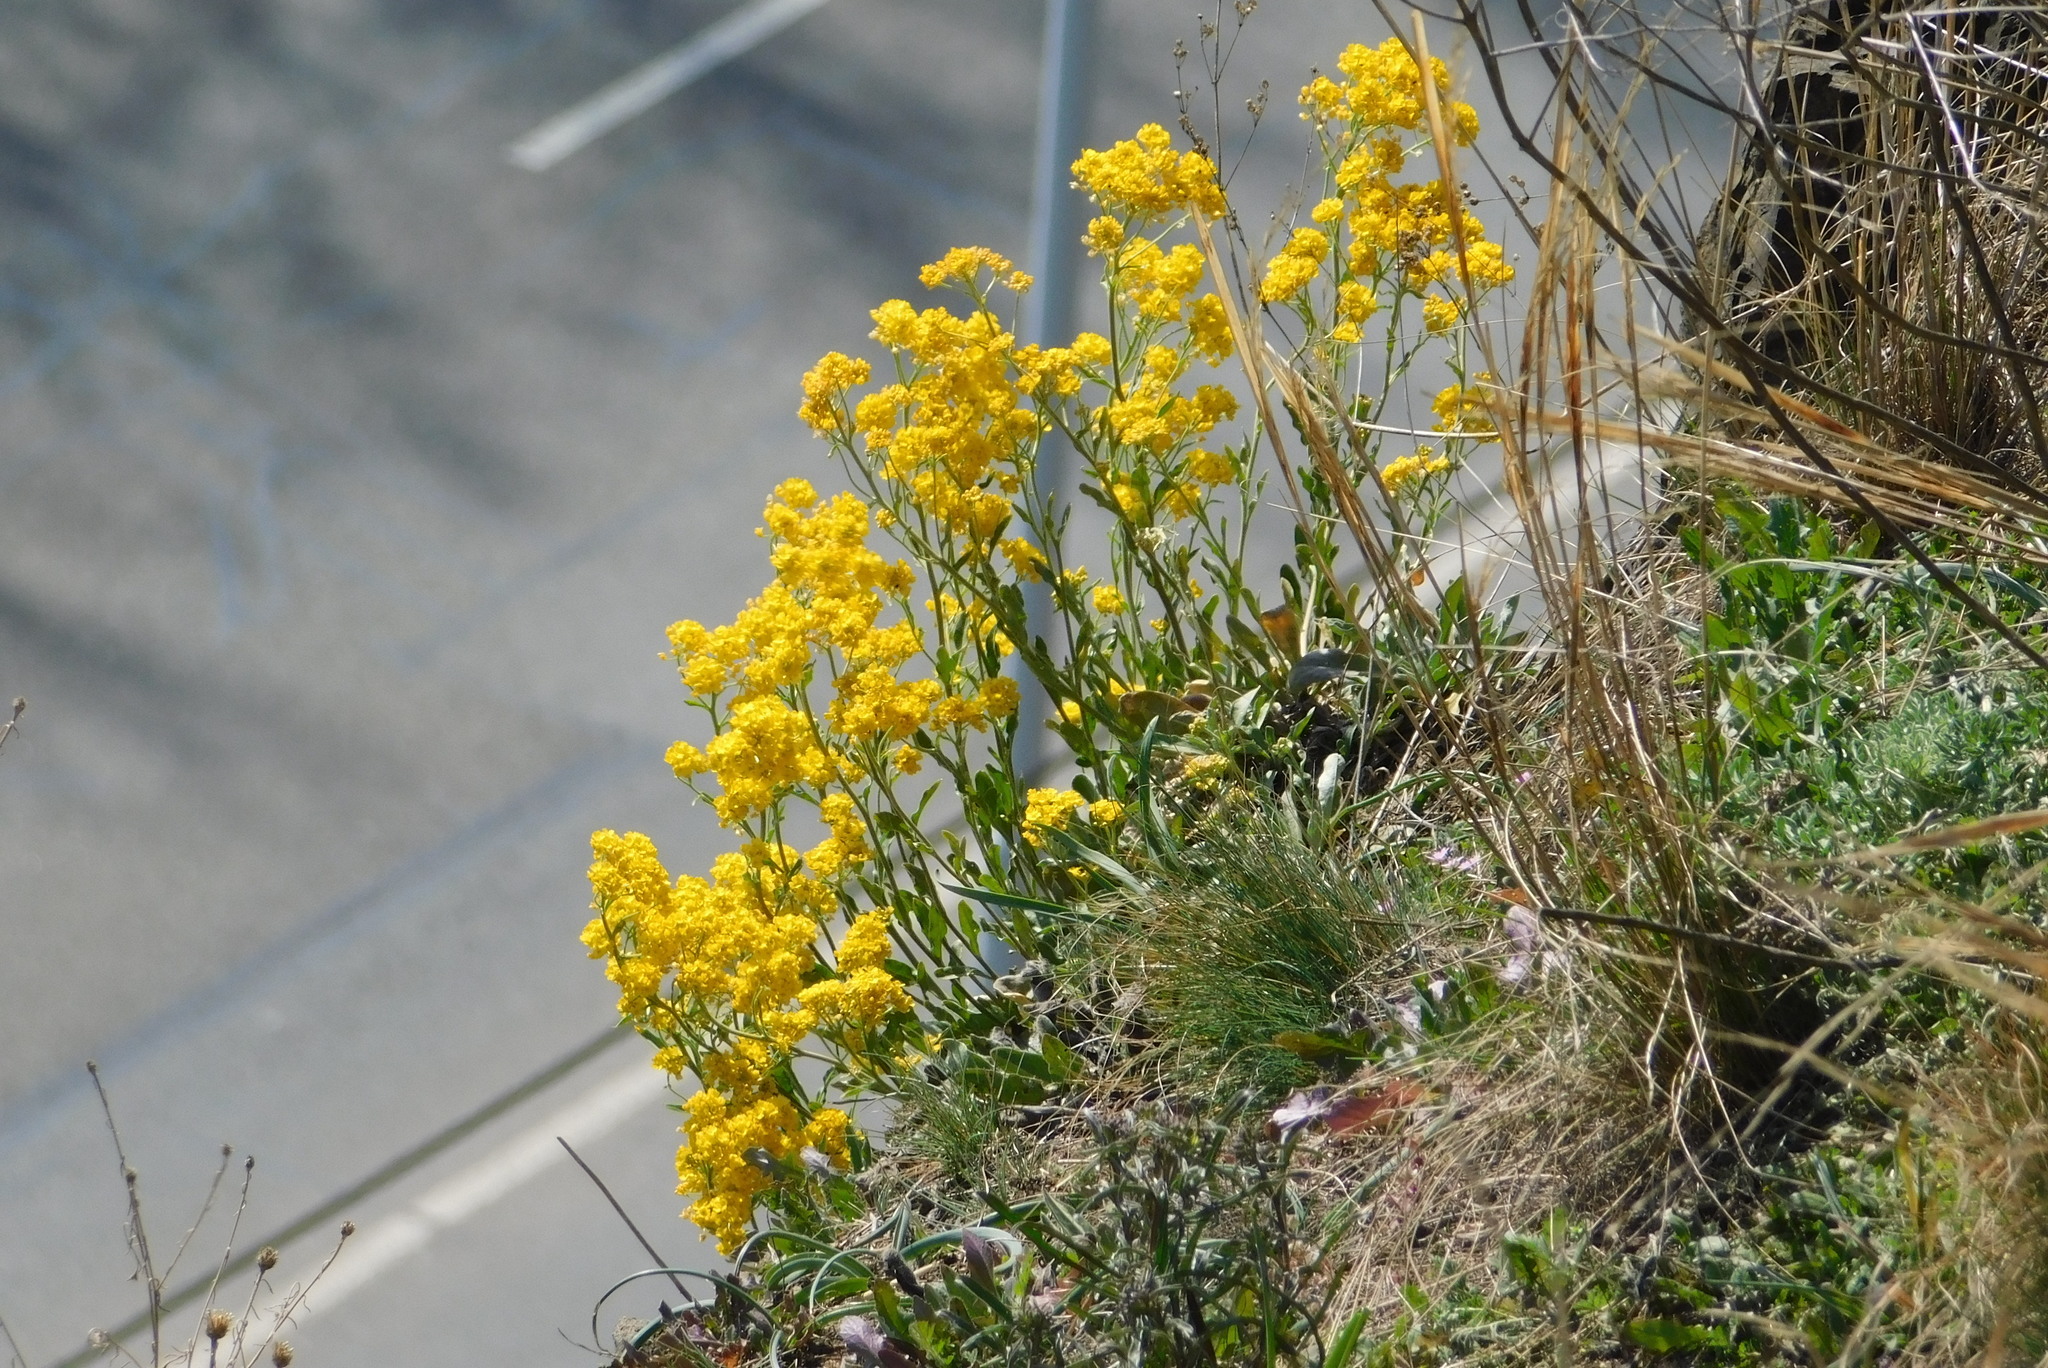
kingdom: Plantae
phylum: Tracheophyta
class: Magnoliopsida
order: Brassicales
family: Brassicaceae
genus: Aurinia
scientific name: Aurinia saxatilis
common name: Golden-tuft alyssum
